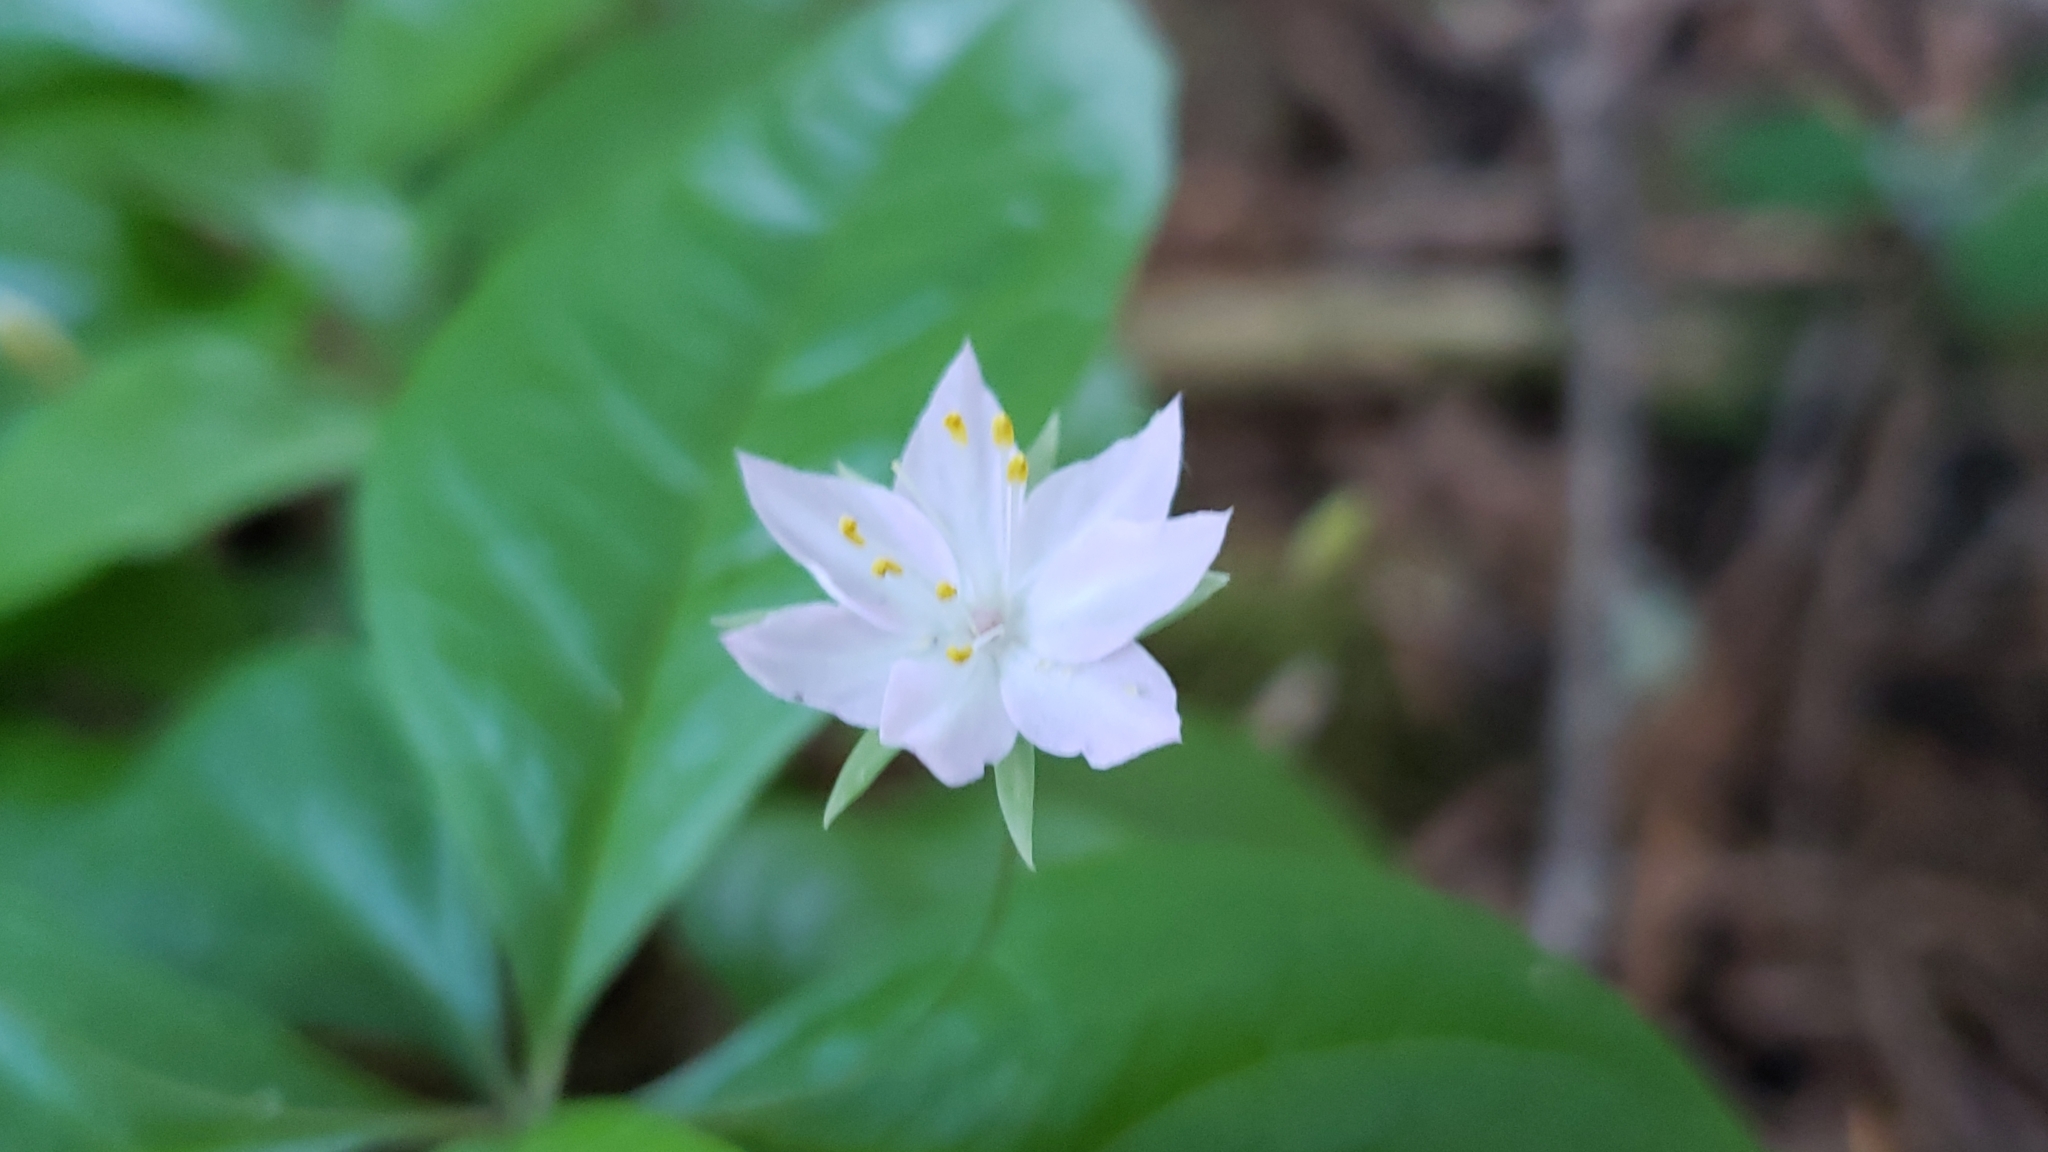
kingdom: Plantae
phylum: Tracheophyta
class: Magnoliopsida
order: Ericales
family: Primulaceae
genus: Lysimachia
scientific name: Lysimachia latifolia
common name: Pacific starflower
